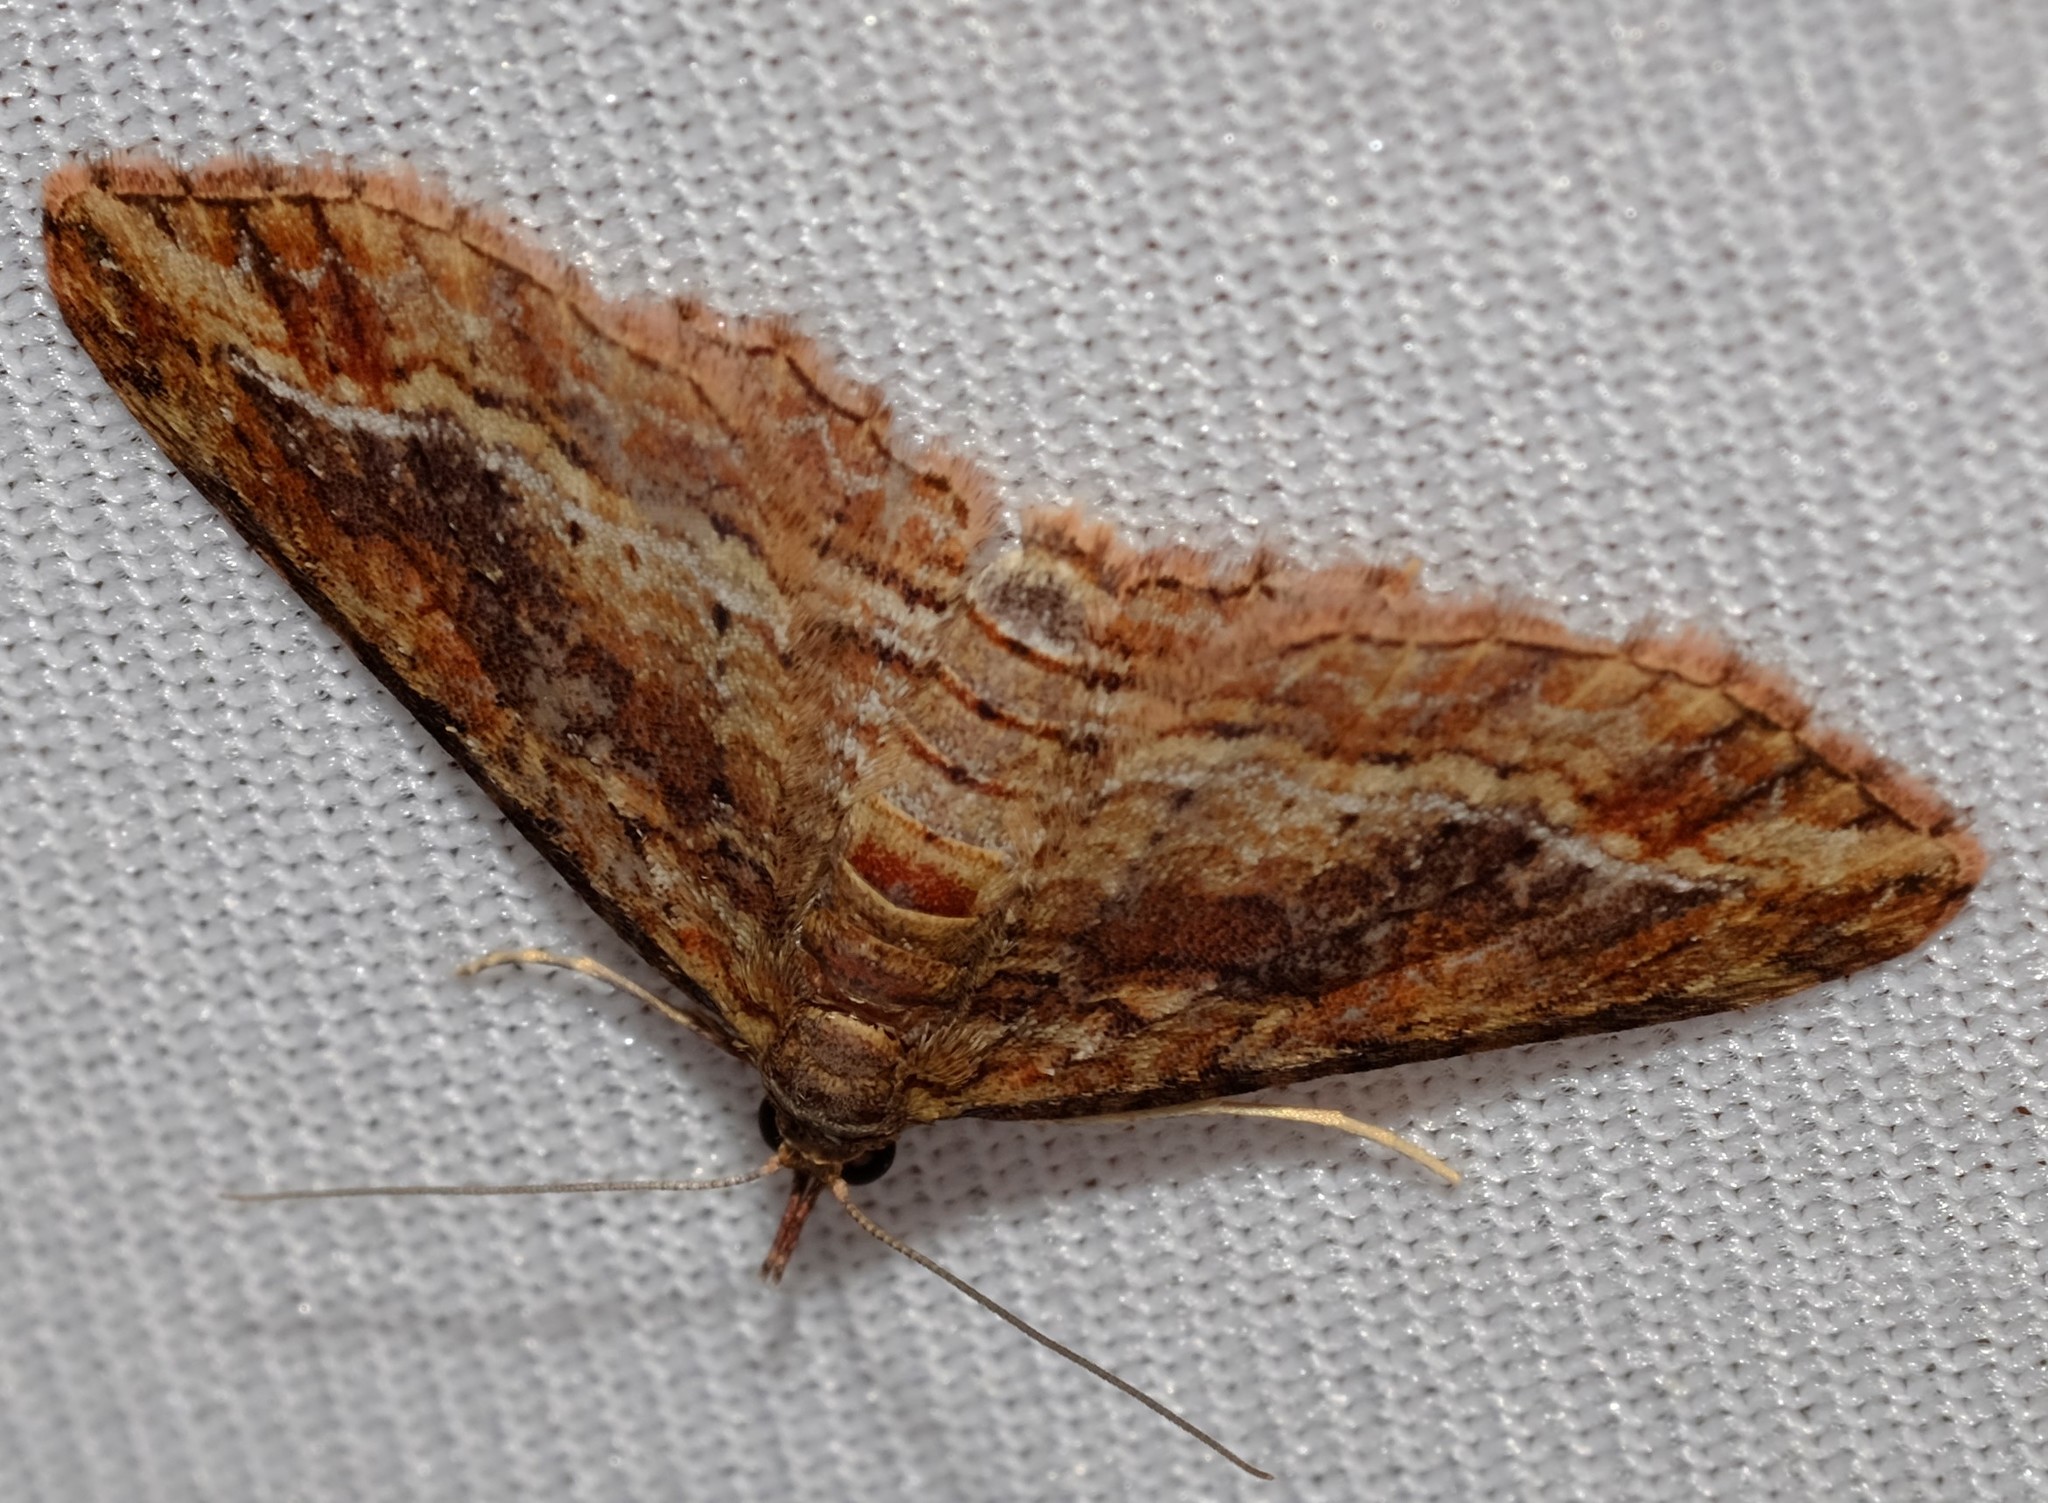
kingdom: Animalia
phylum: Arthropoda
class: Insecta
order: Lepidoptera
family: Geometridae
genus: Chloroclystis
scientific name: Chloroclystis filata
